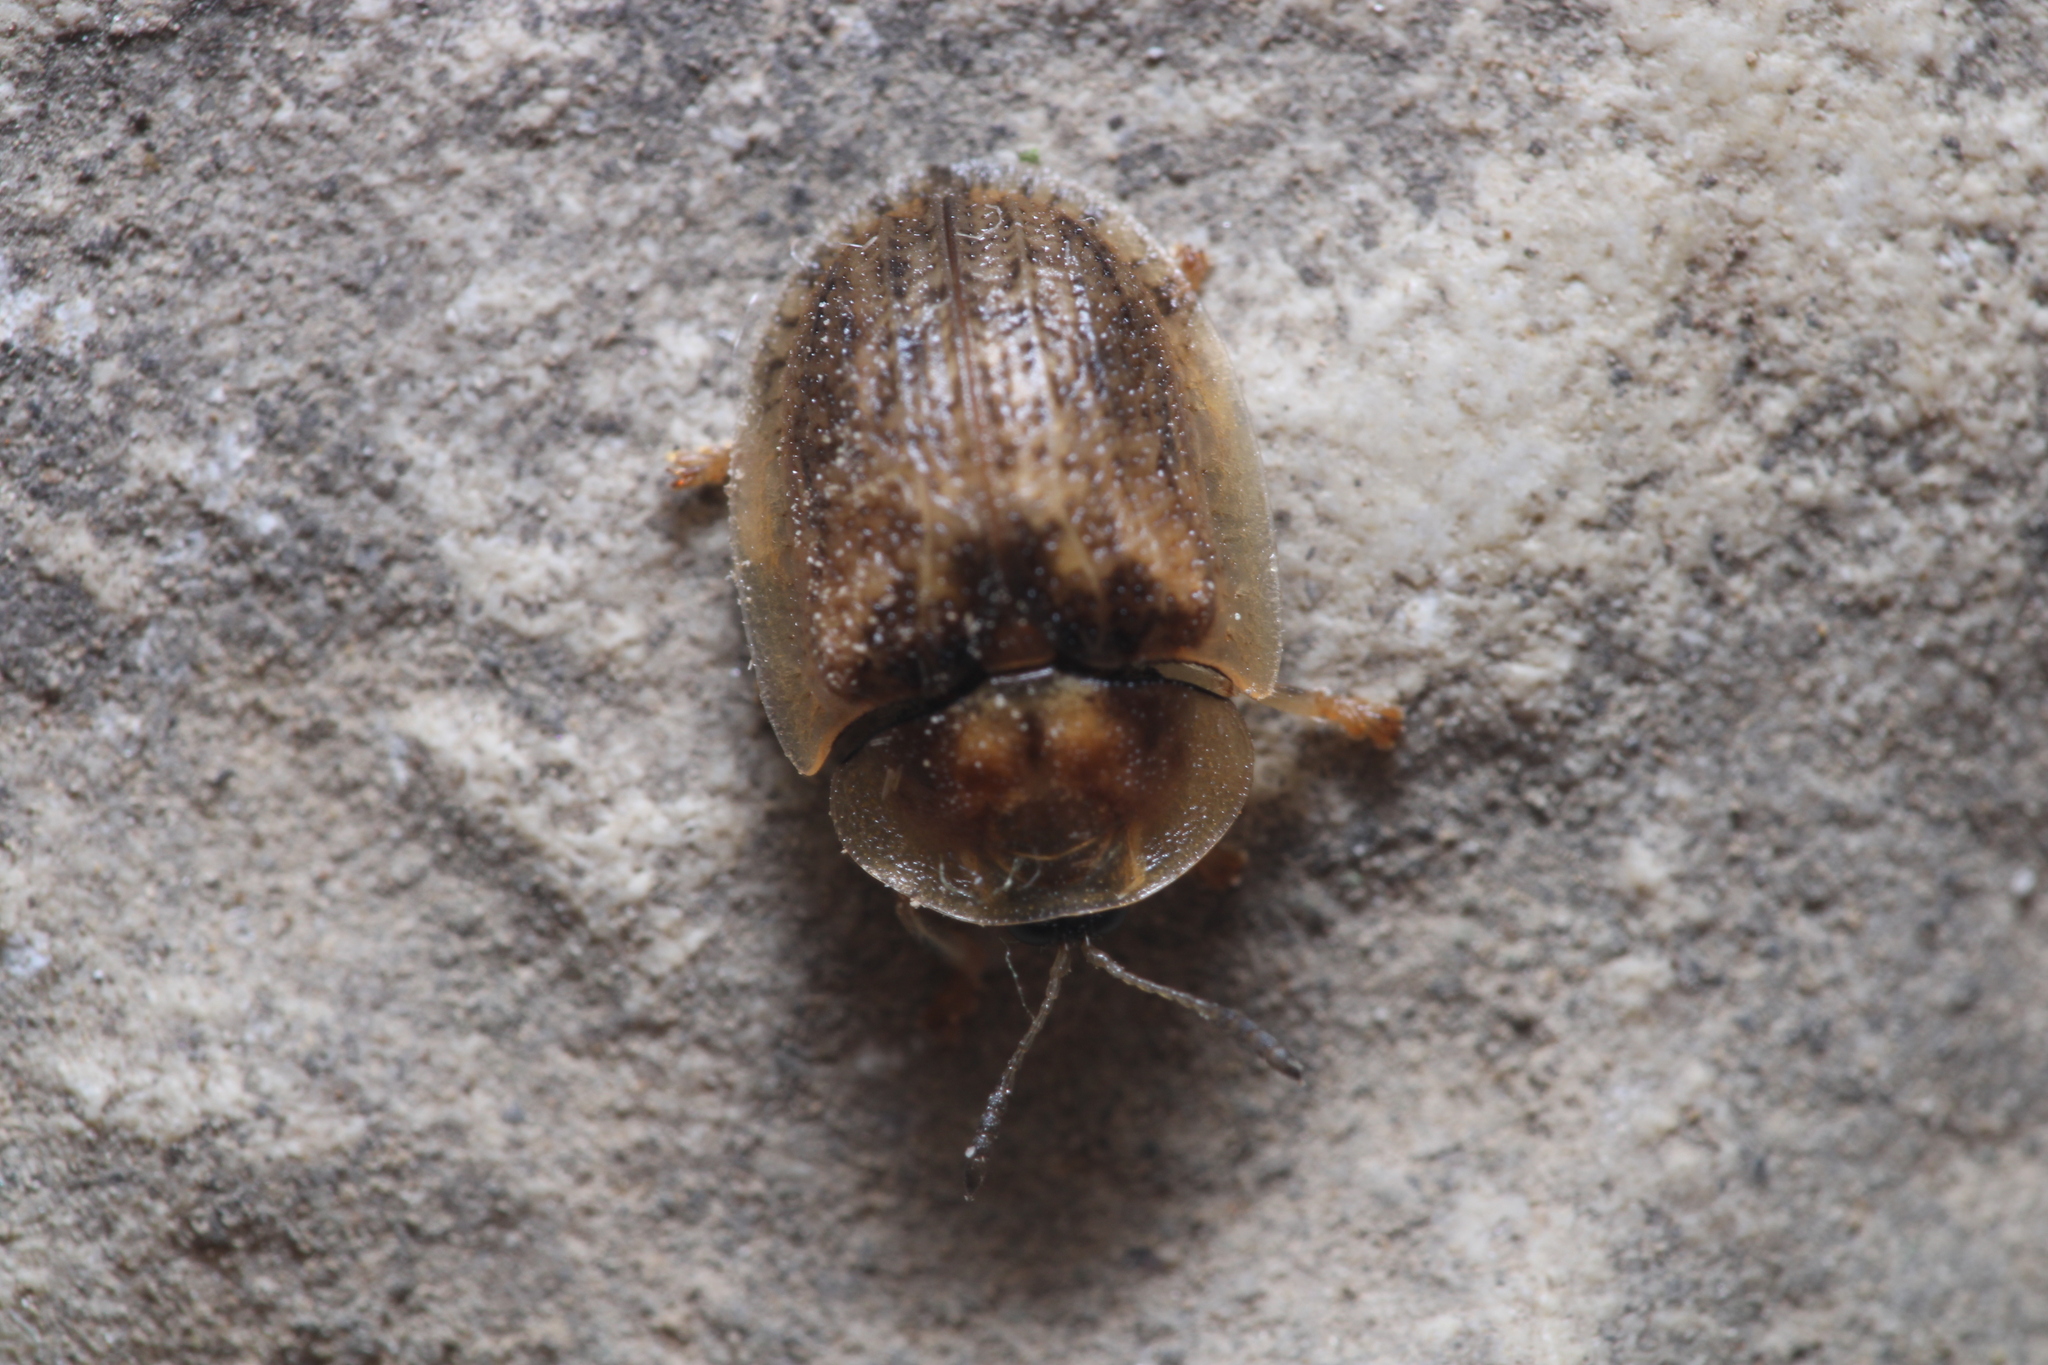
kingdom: Animalia
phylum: Arthropoda
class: Insecta
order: Coleoptera
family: Chrysomelidae
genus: Hypocassida
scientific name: Hypocassida cornea
